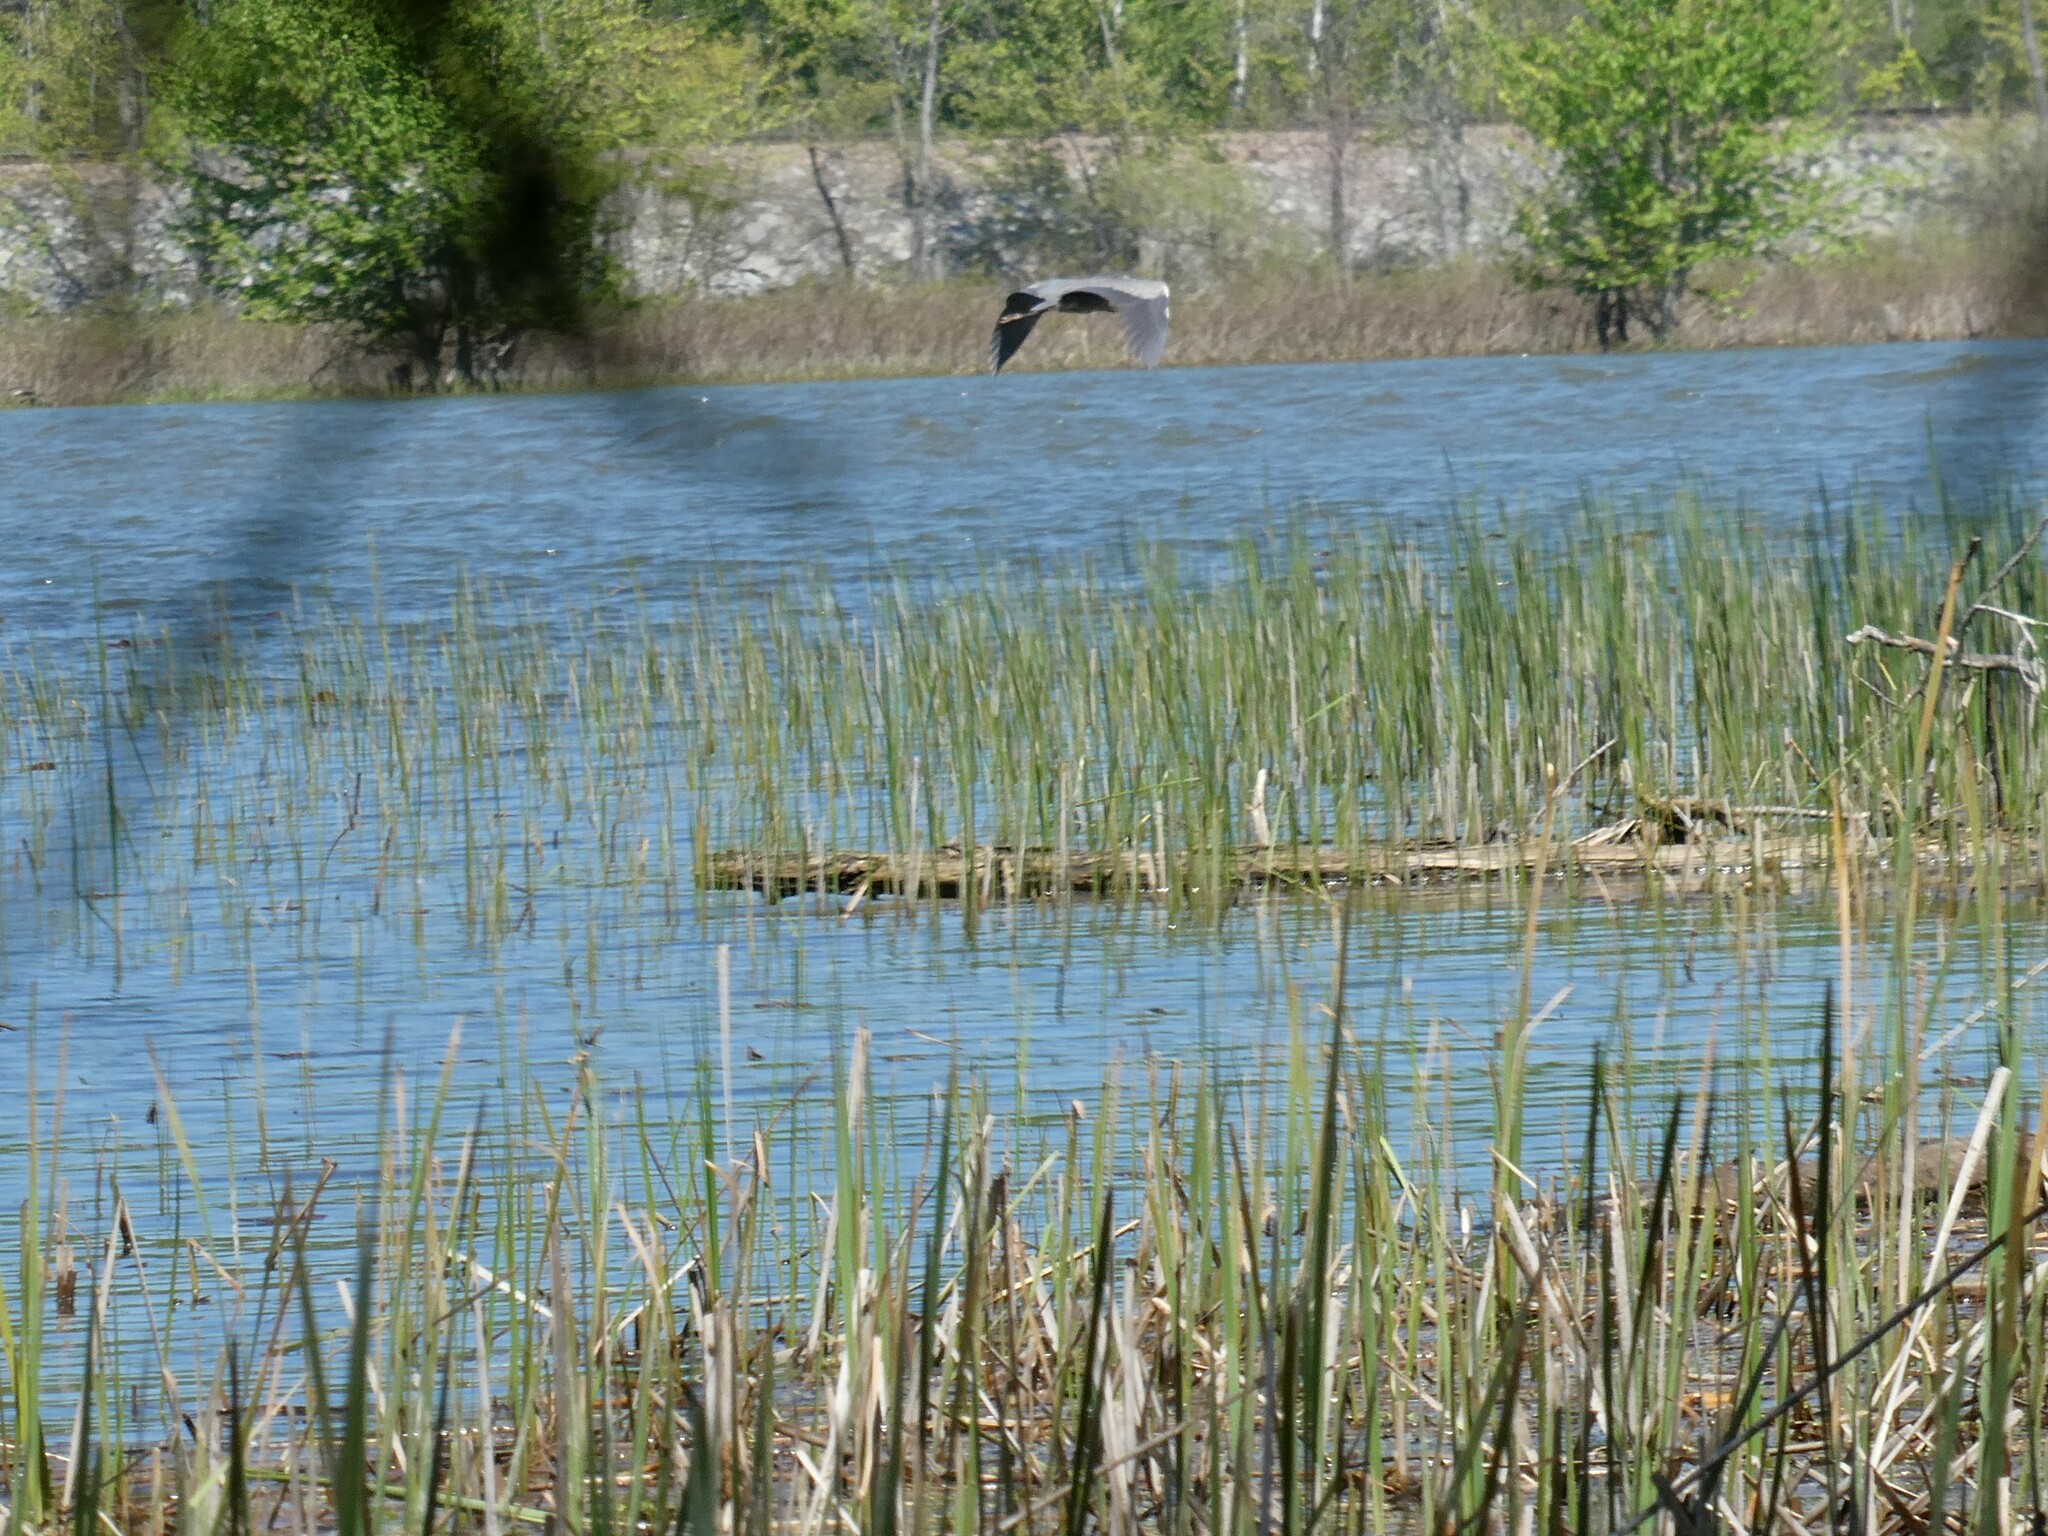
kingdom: Animalia
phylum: Chordata
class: Aves
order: Pelecaniformes
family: Ardeidae
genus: Ardea
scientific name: Ardea herodias
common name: Great blue heron
